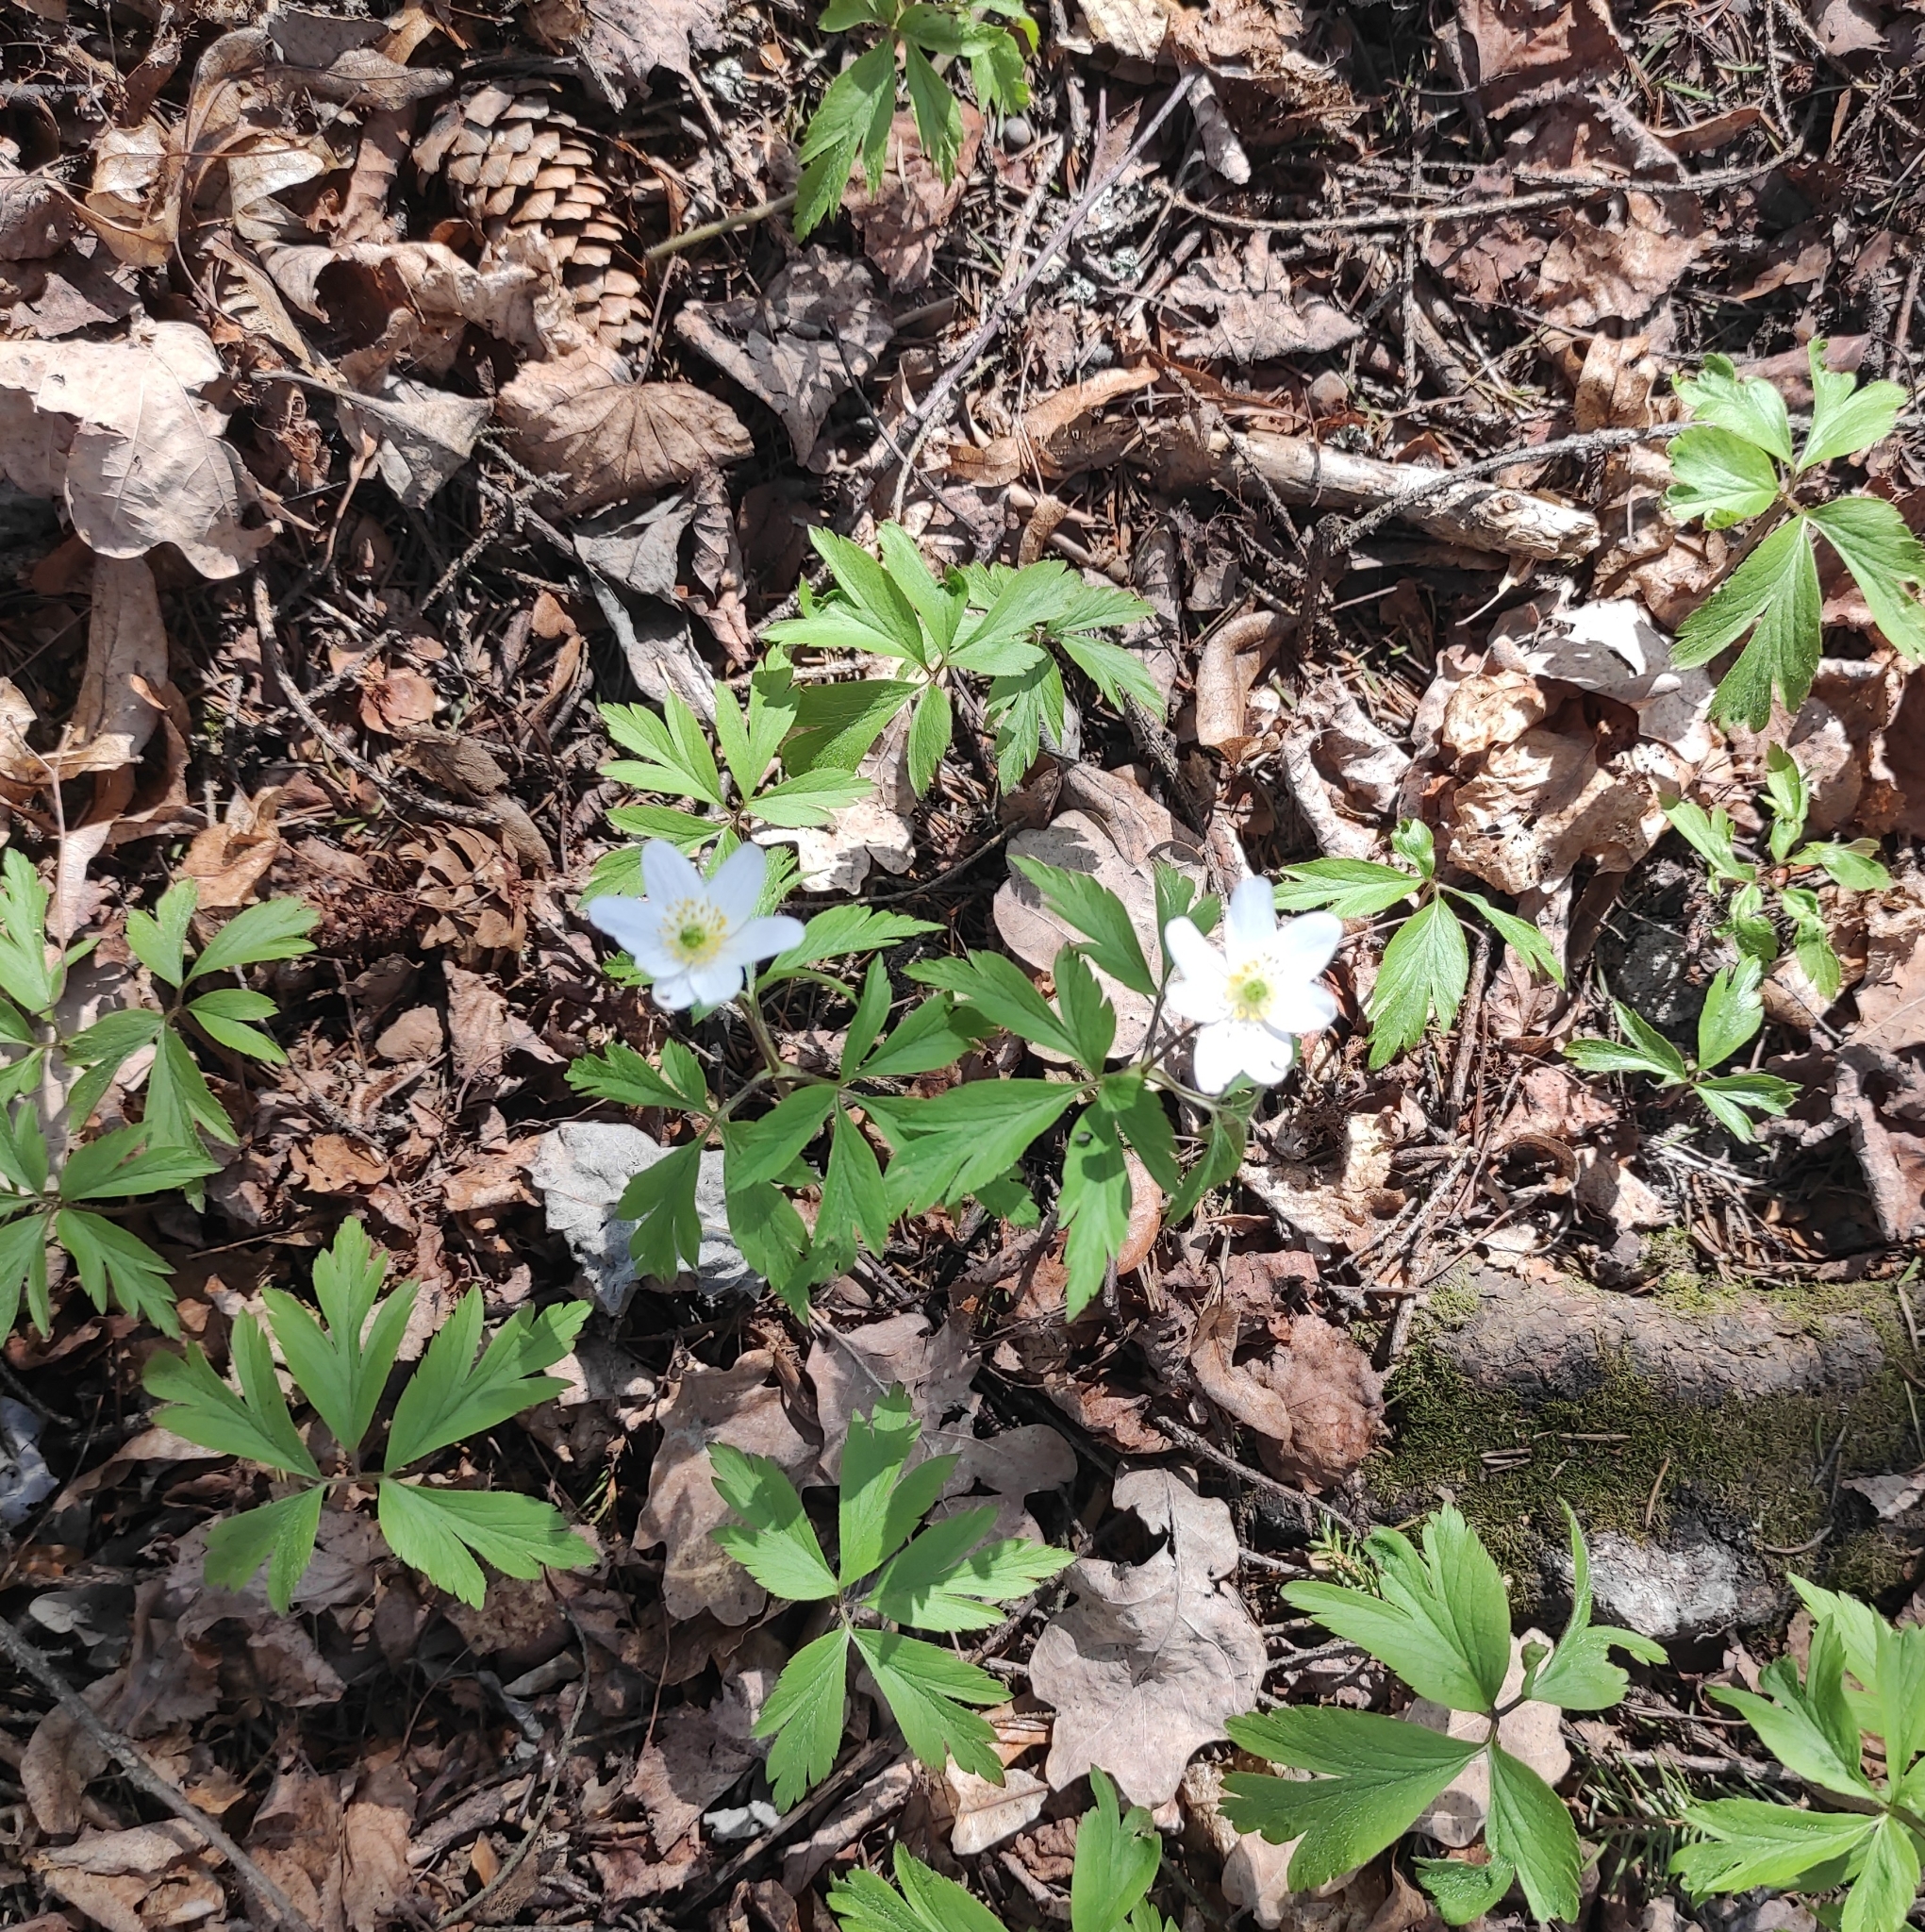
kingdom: Plantae
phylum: Tracheophyta
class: Magnoliopsida
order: Ranunculales
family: Ranunculaceae
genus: Anemone
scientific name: Anemone nemorosa
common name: Wood anemone
